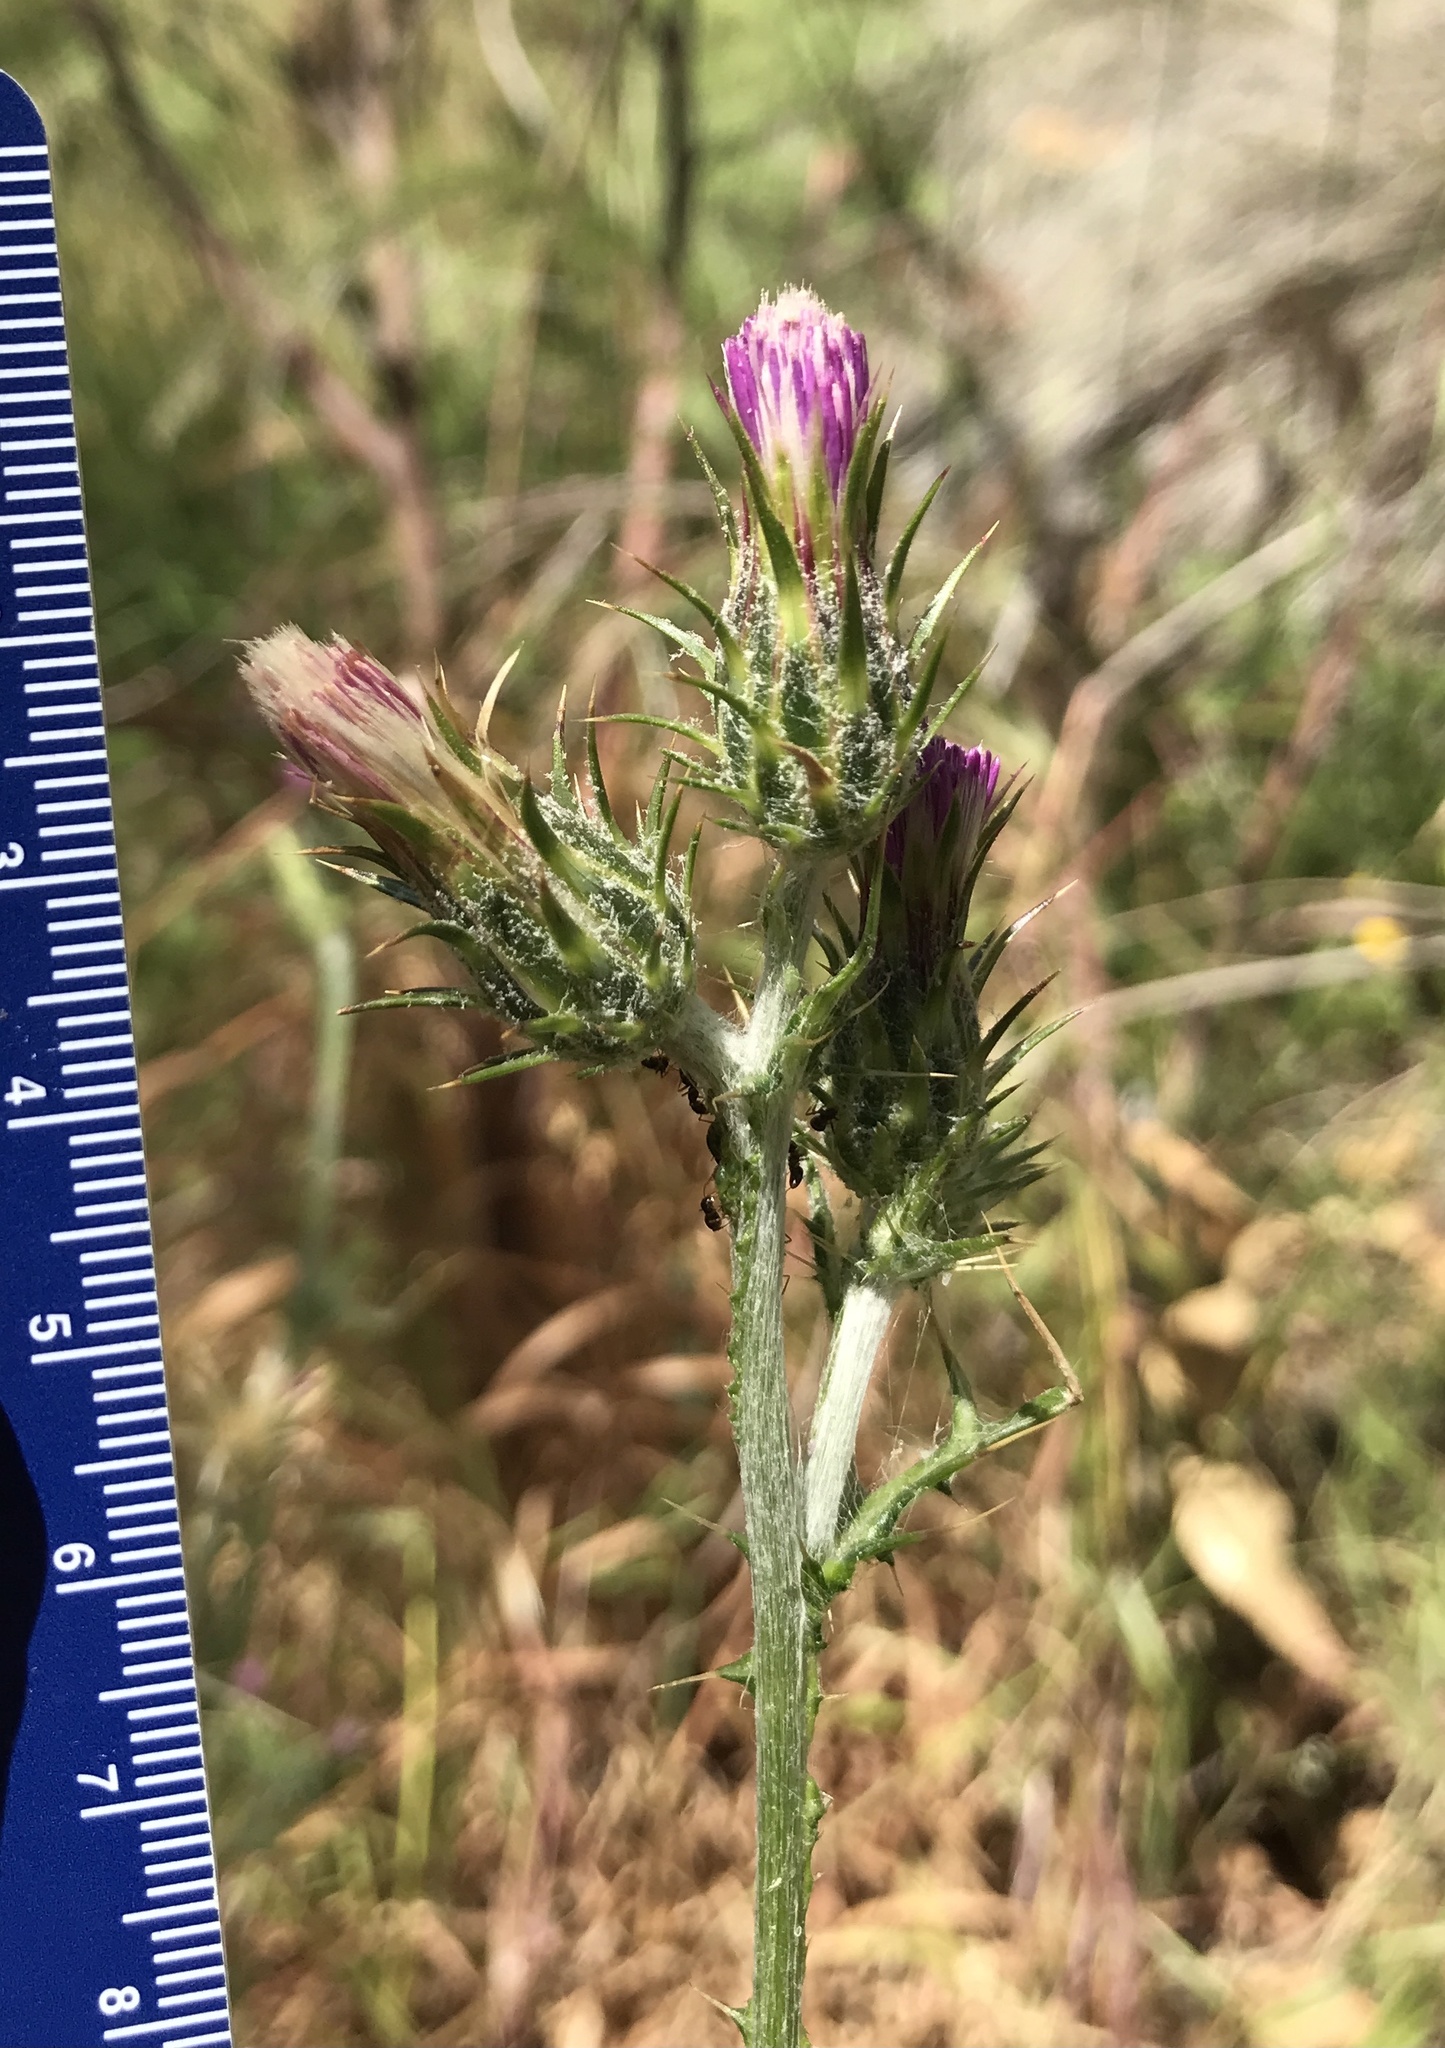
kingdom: Plantae
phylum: Tracheophyta
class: Magnoliopsida
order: Asterales
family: Asteraceae
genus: Carduus
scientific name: Carduus pycnocephalus
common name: Plymouth thistle
